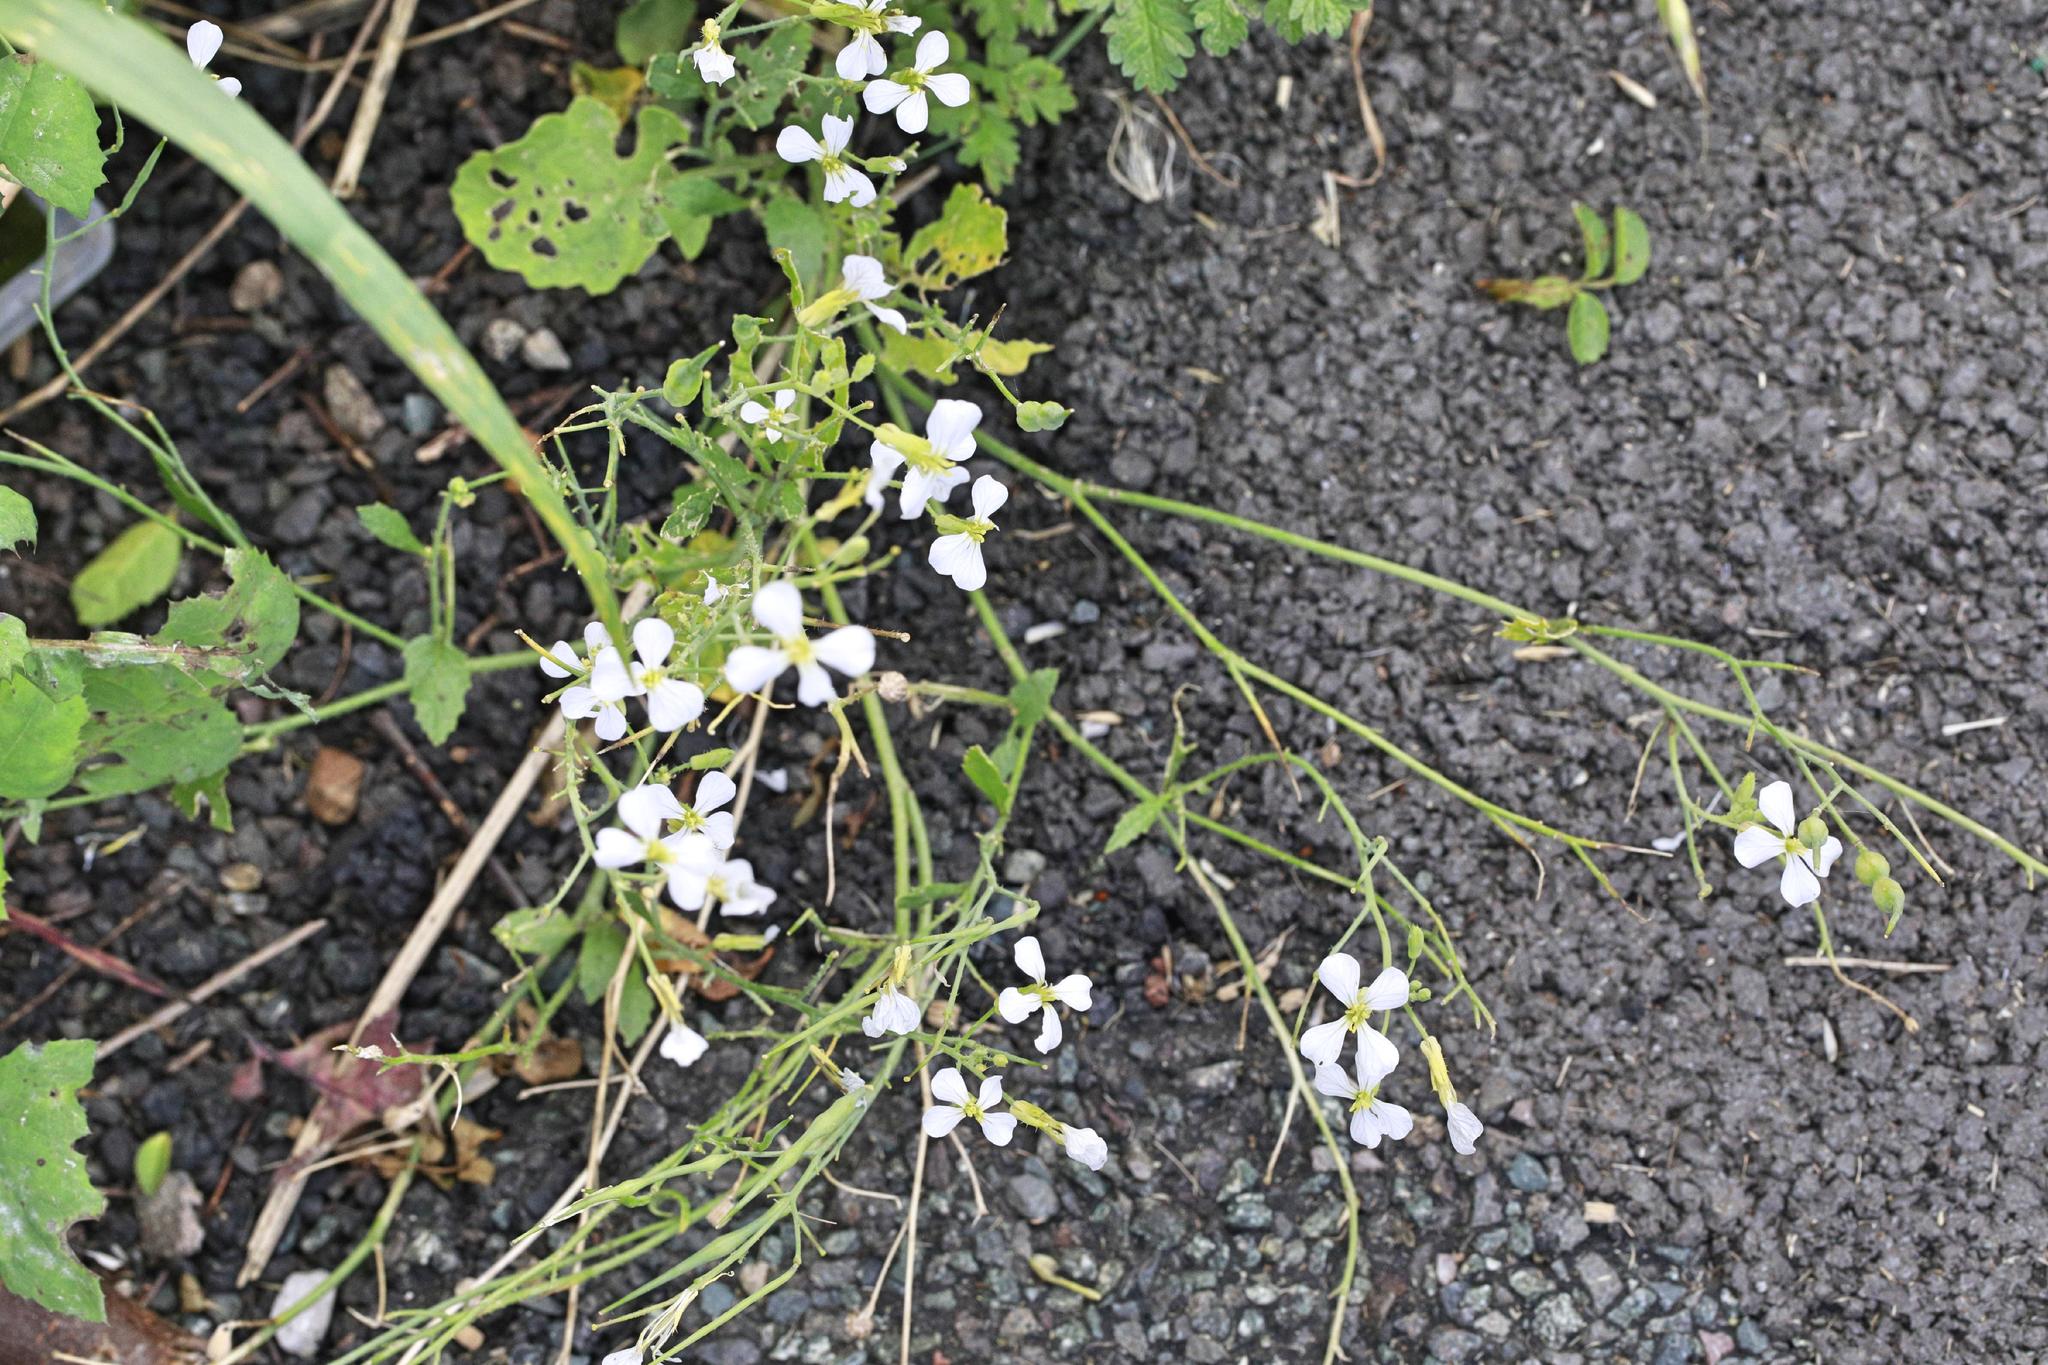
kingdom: Plantae
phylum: Tracheophyta
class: Magnoliopsida
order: Brassicales
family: Brassicaceae
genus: Raphanus
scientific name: Raphanus raphanistrum
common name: Wild radish
